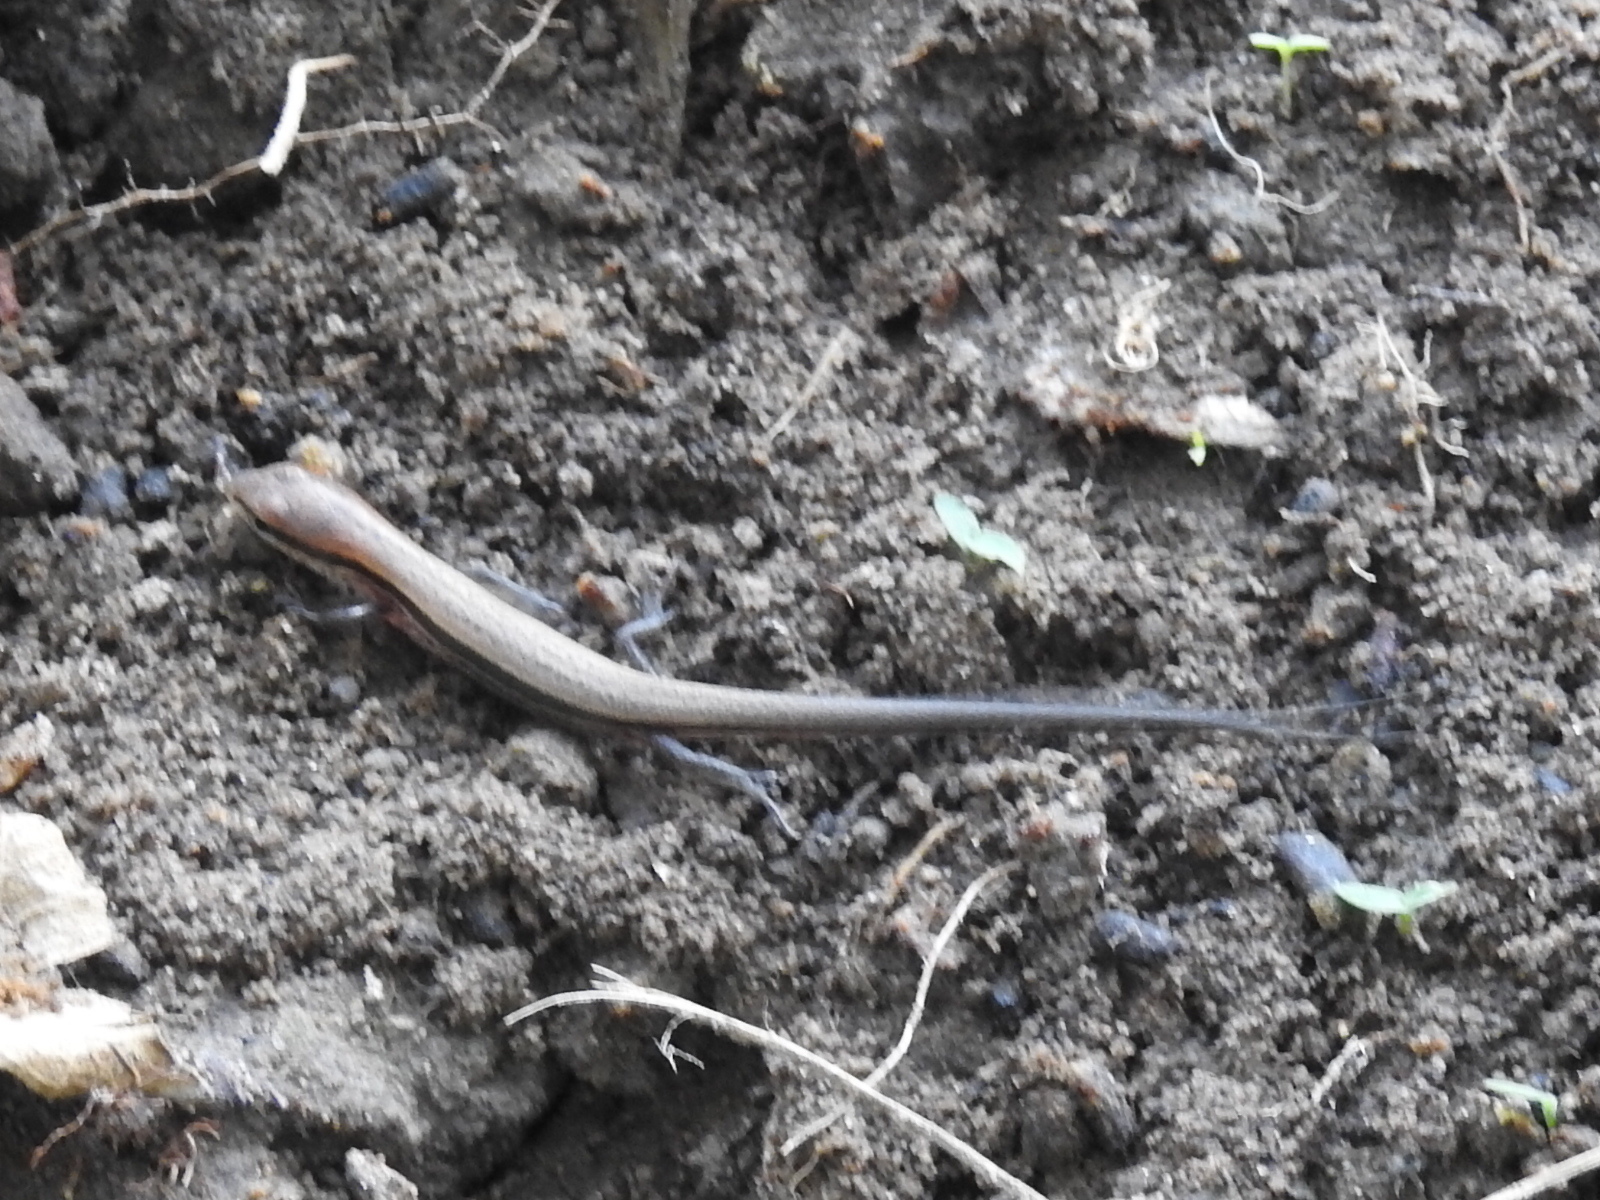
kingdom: Animalia
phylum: Chordata
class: Squamata
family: Scincidae
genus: Scincella
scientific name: Scincella lateralis
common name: Ground skink
